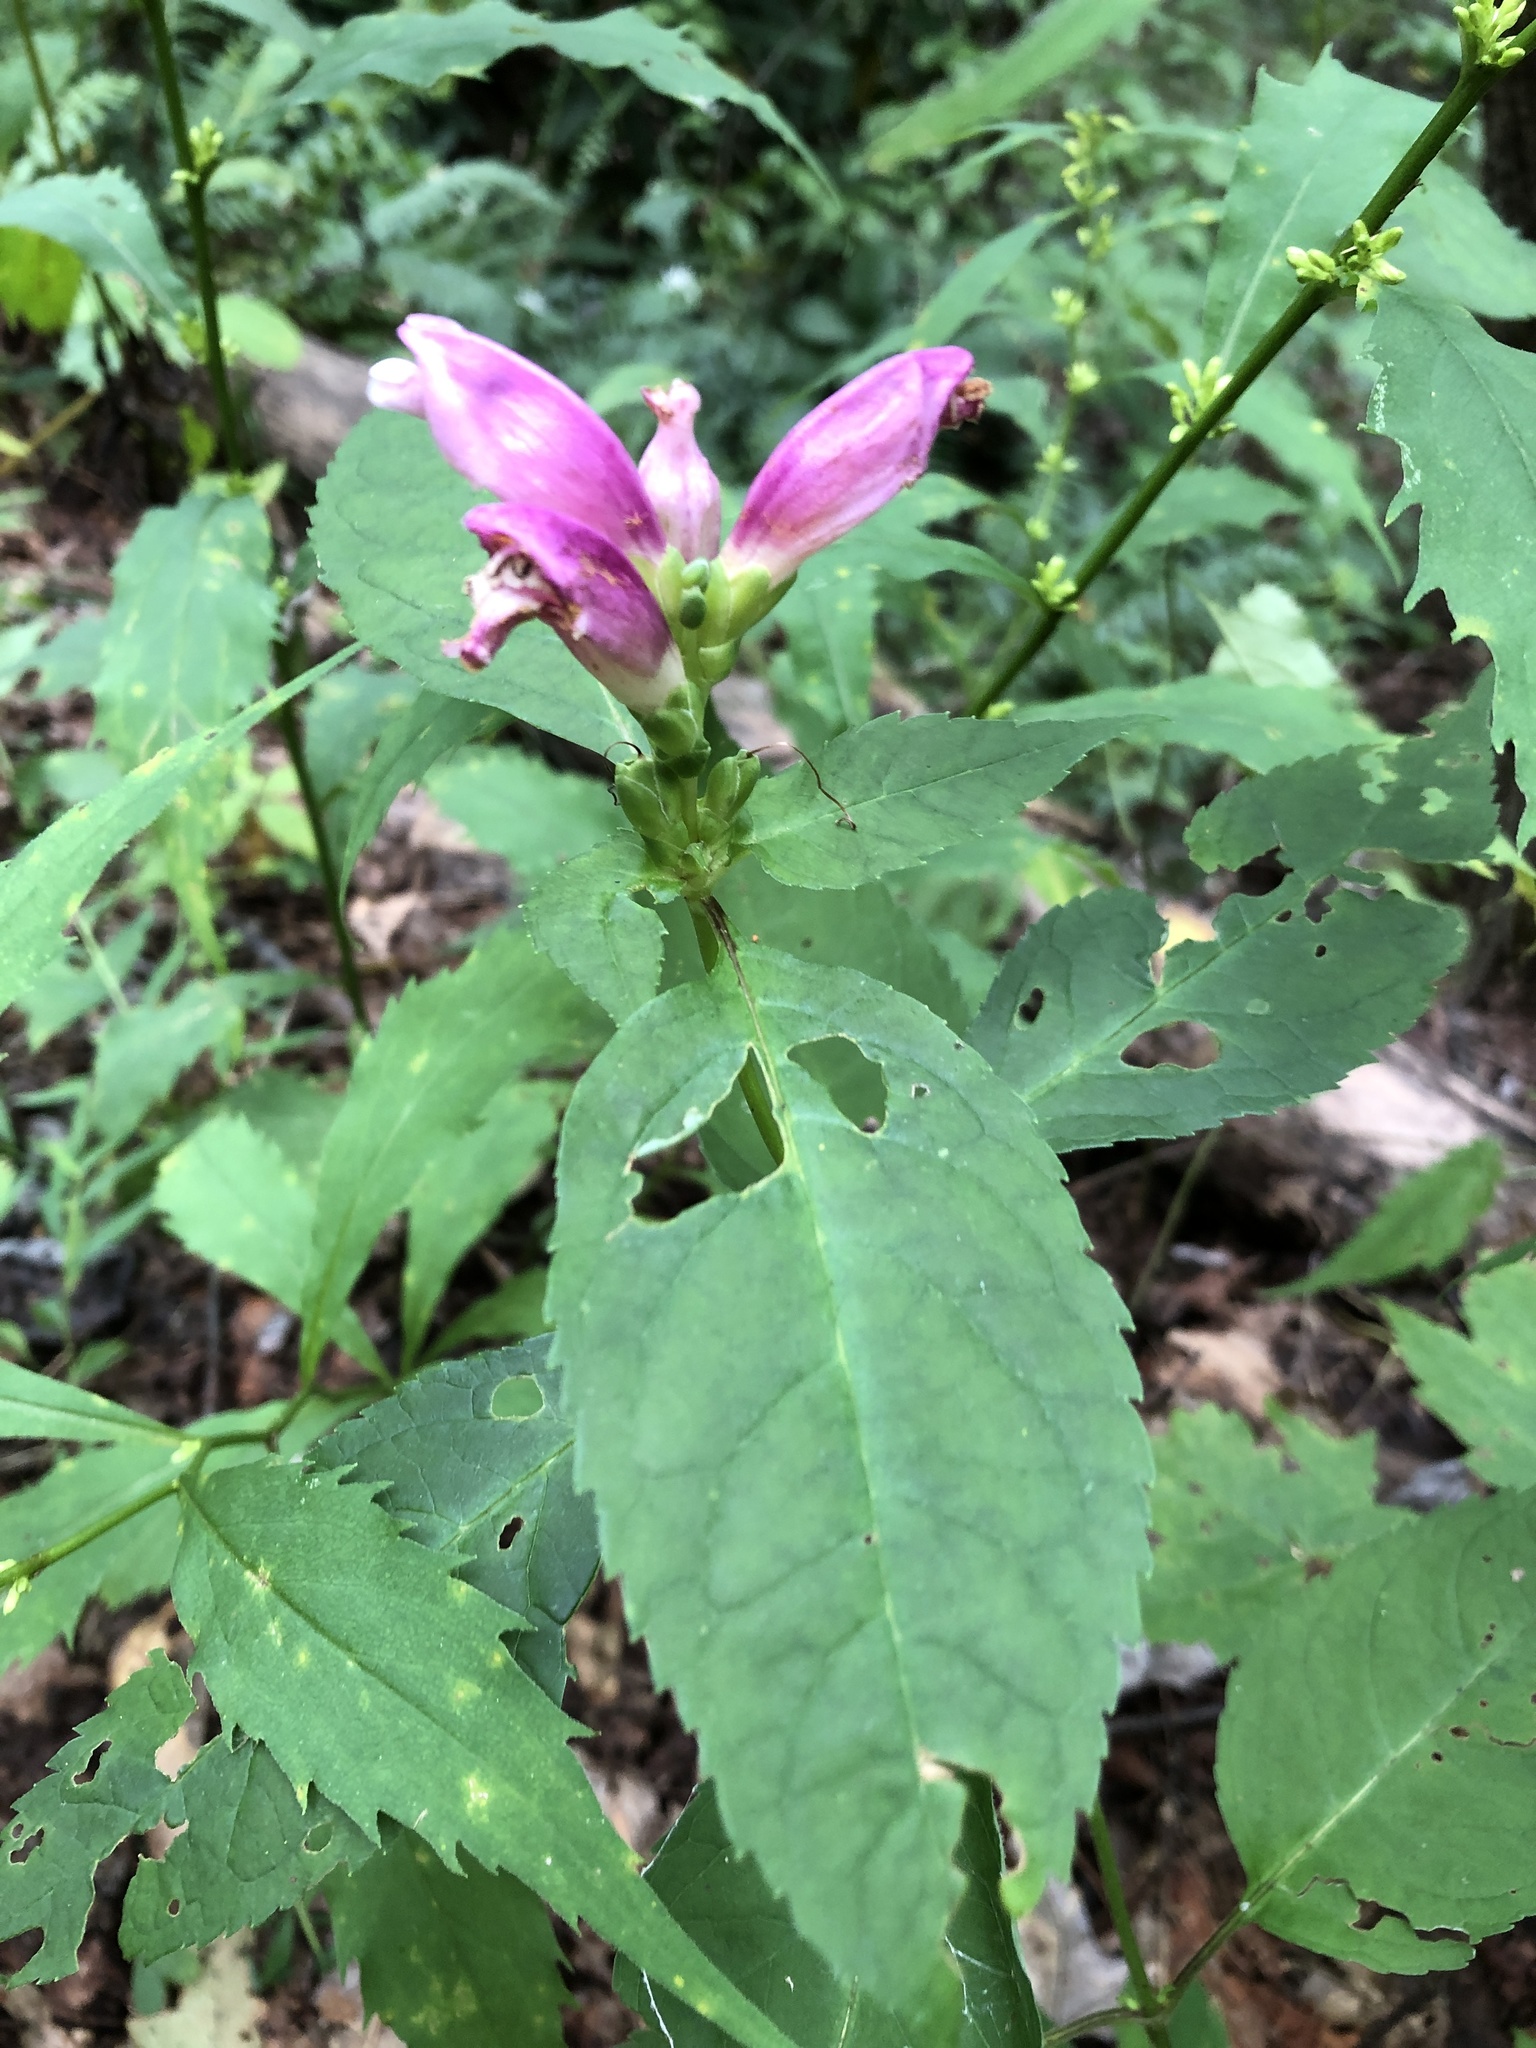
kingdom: Plantae
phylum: Tracheophyta
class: Magnoliopsida
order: Lamiales
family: Plantaginaceae
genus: Chelone
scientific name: Chelone lyonii
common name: Pink turtlehead
